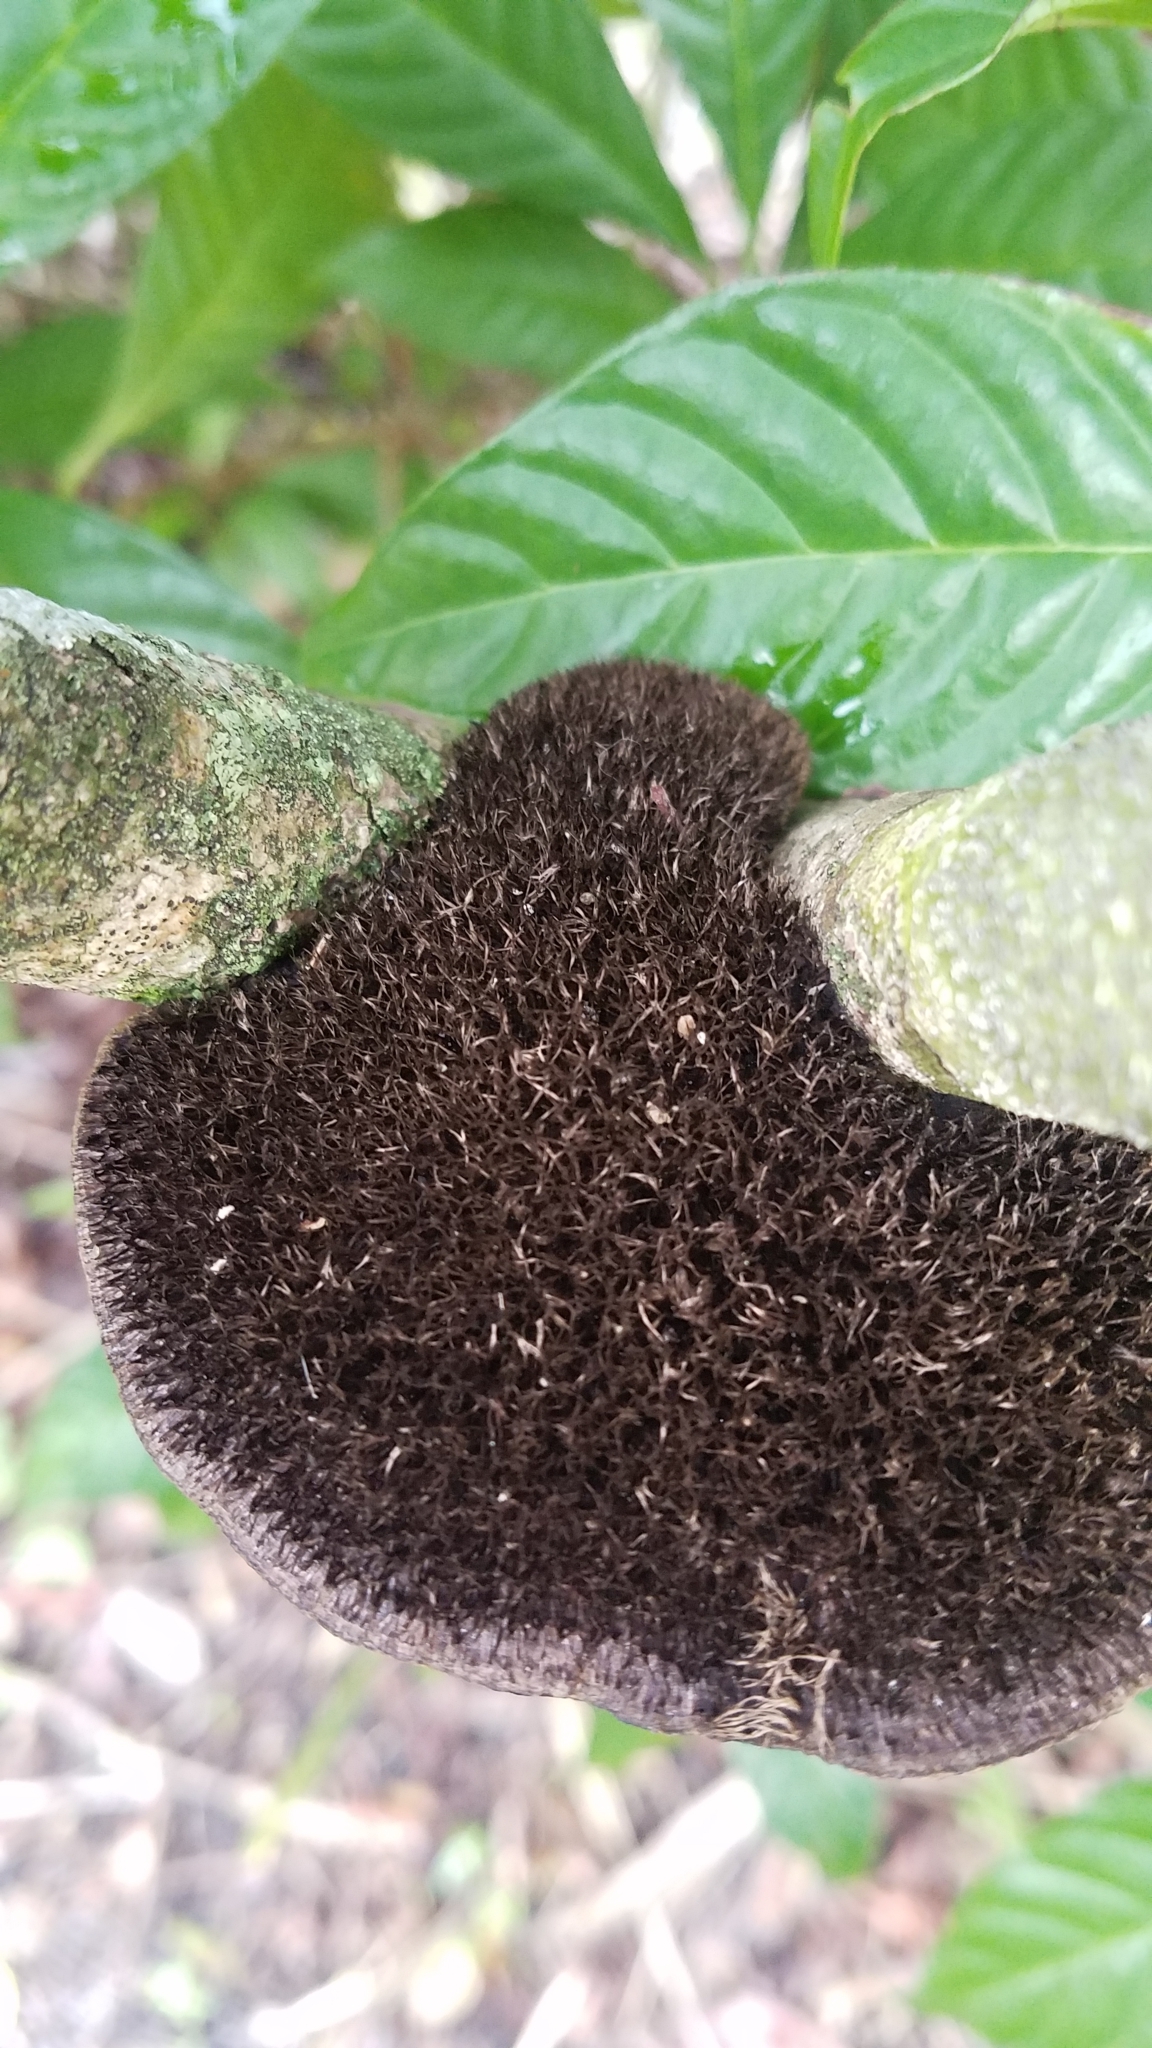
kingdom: Fungi
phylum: Basidiomycota
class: Agaricomycetes
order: Polyporales
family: Cerrenaceae
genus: Cerrena
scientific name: Cerrena hydnoides
